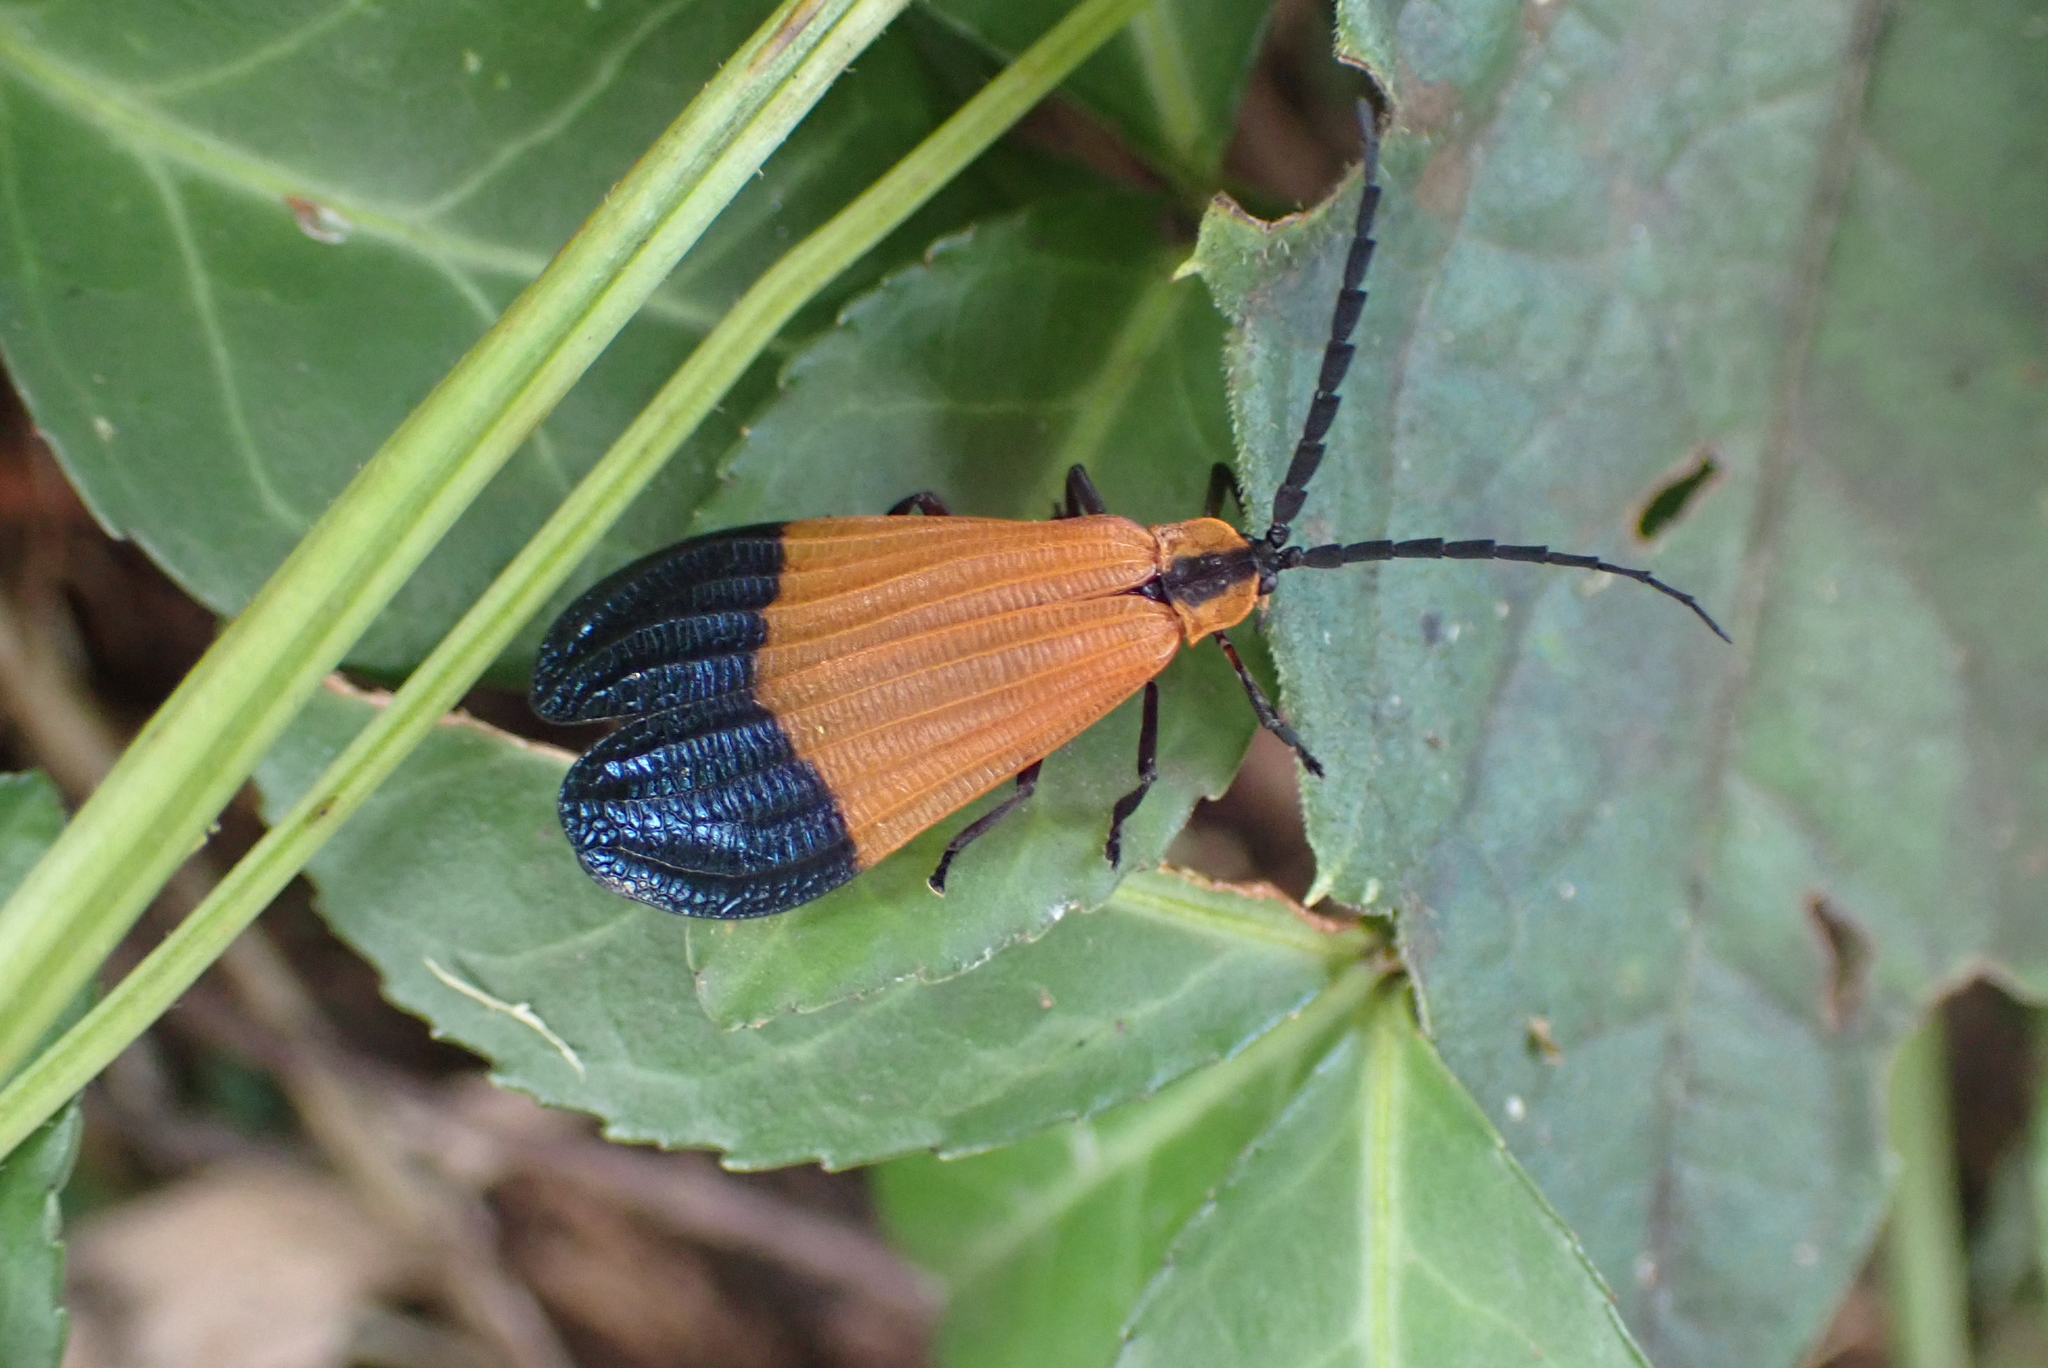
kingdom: Animalia
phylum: Arthropoda
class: Insecta
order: Coleoptera
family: Lycidae
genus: Calopteron
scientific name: Calopteron terminale
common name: End band net-winged beetle
